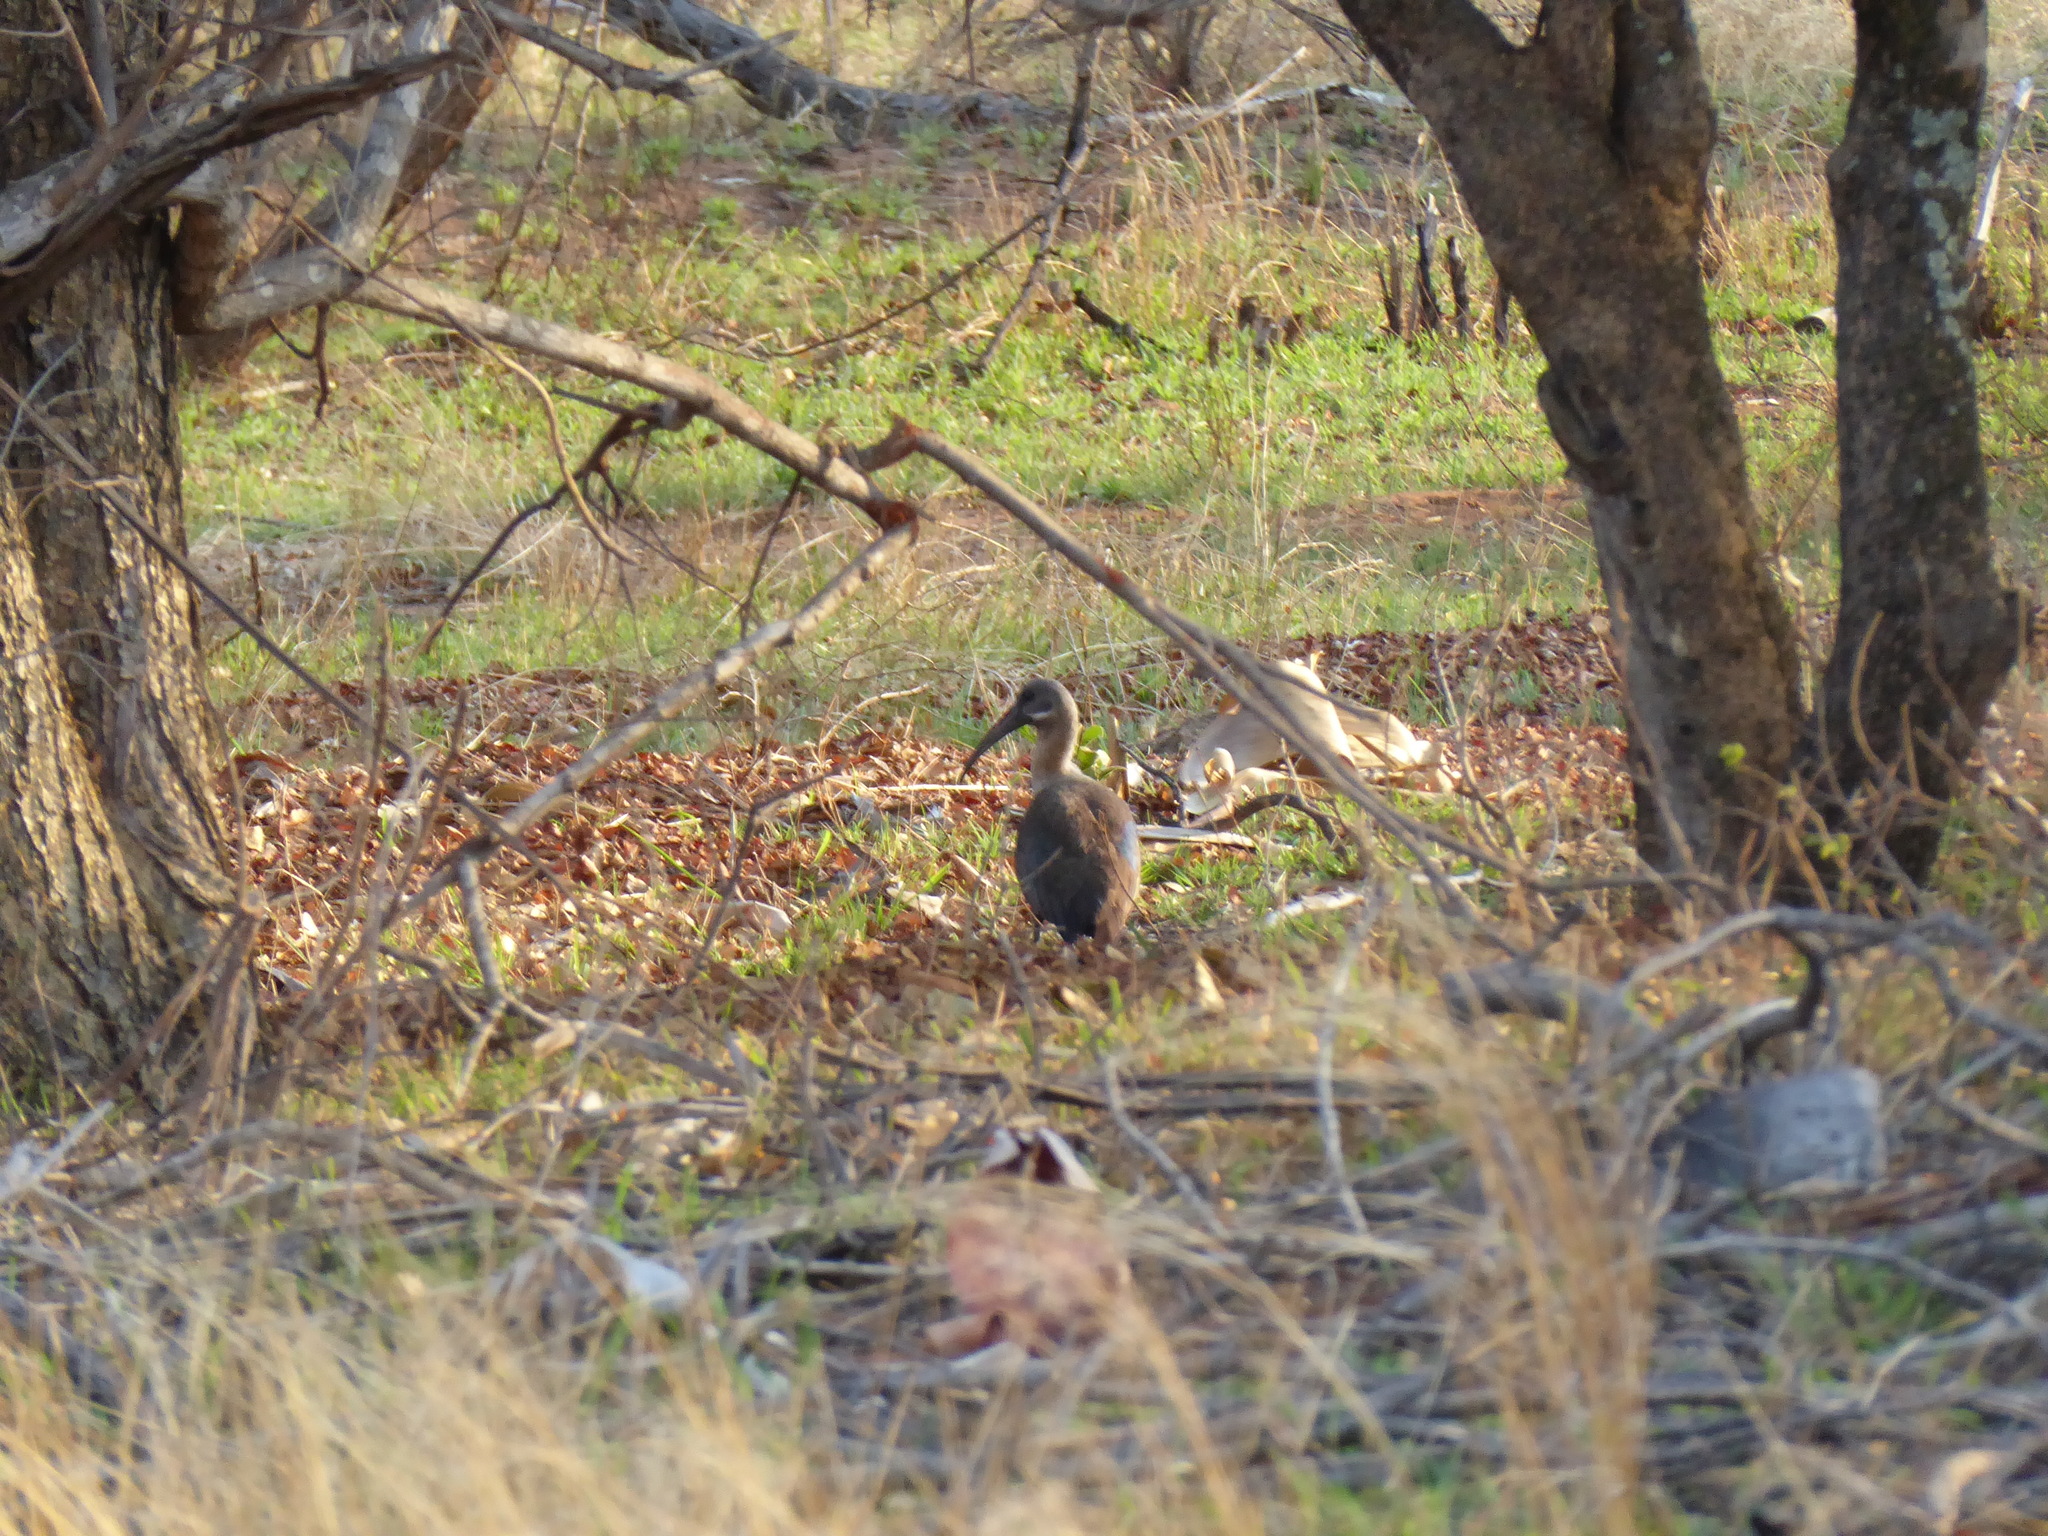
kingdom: Animalia
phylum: Chordata
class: Aves
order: Pelecaniformes
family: Threskiornithidae
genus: Bostrychia
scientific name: Bostrychia hagedash
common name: Hadada ibis
